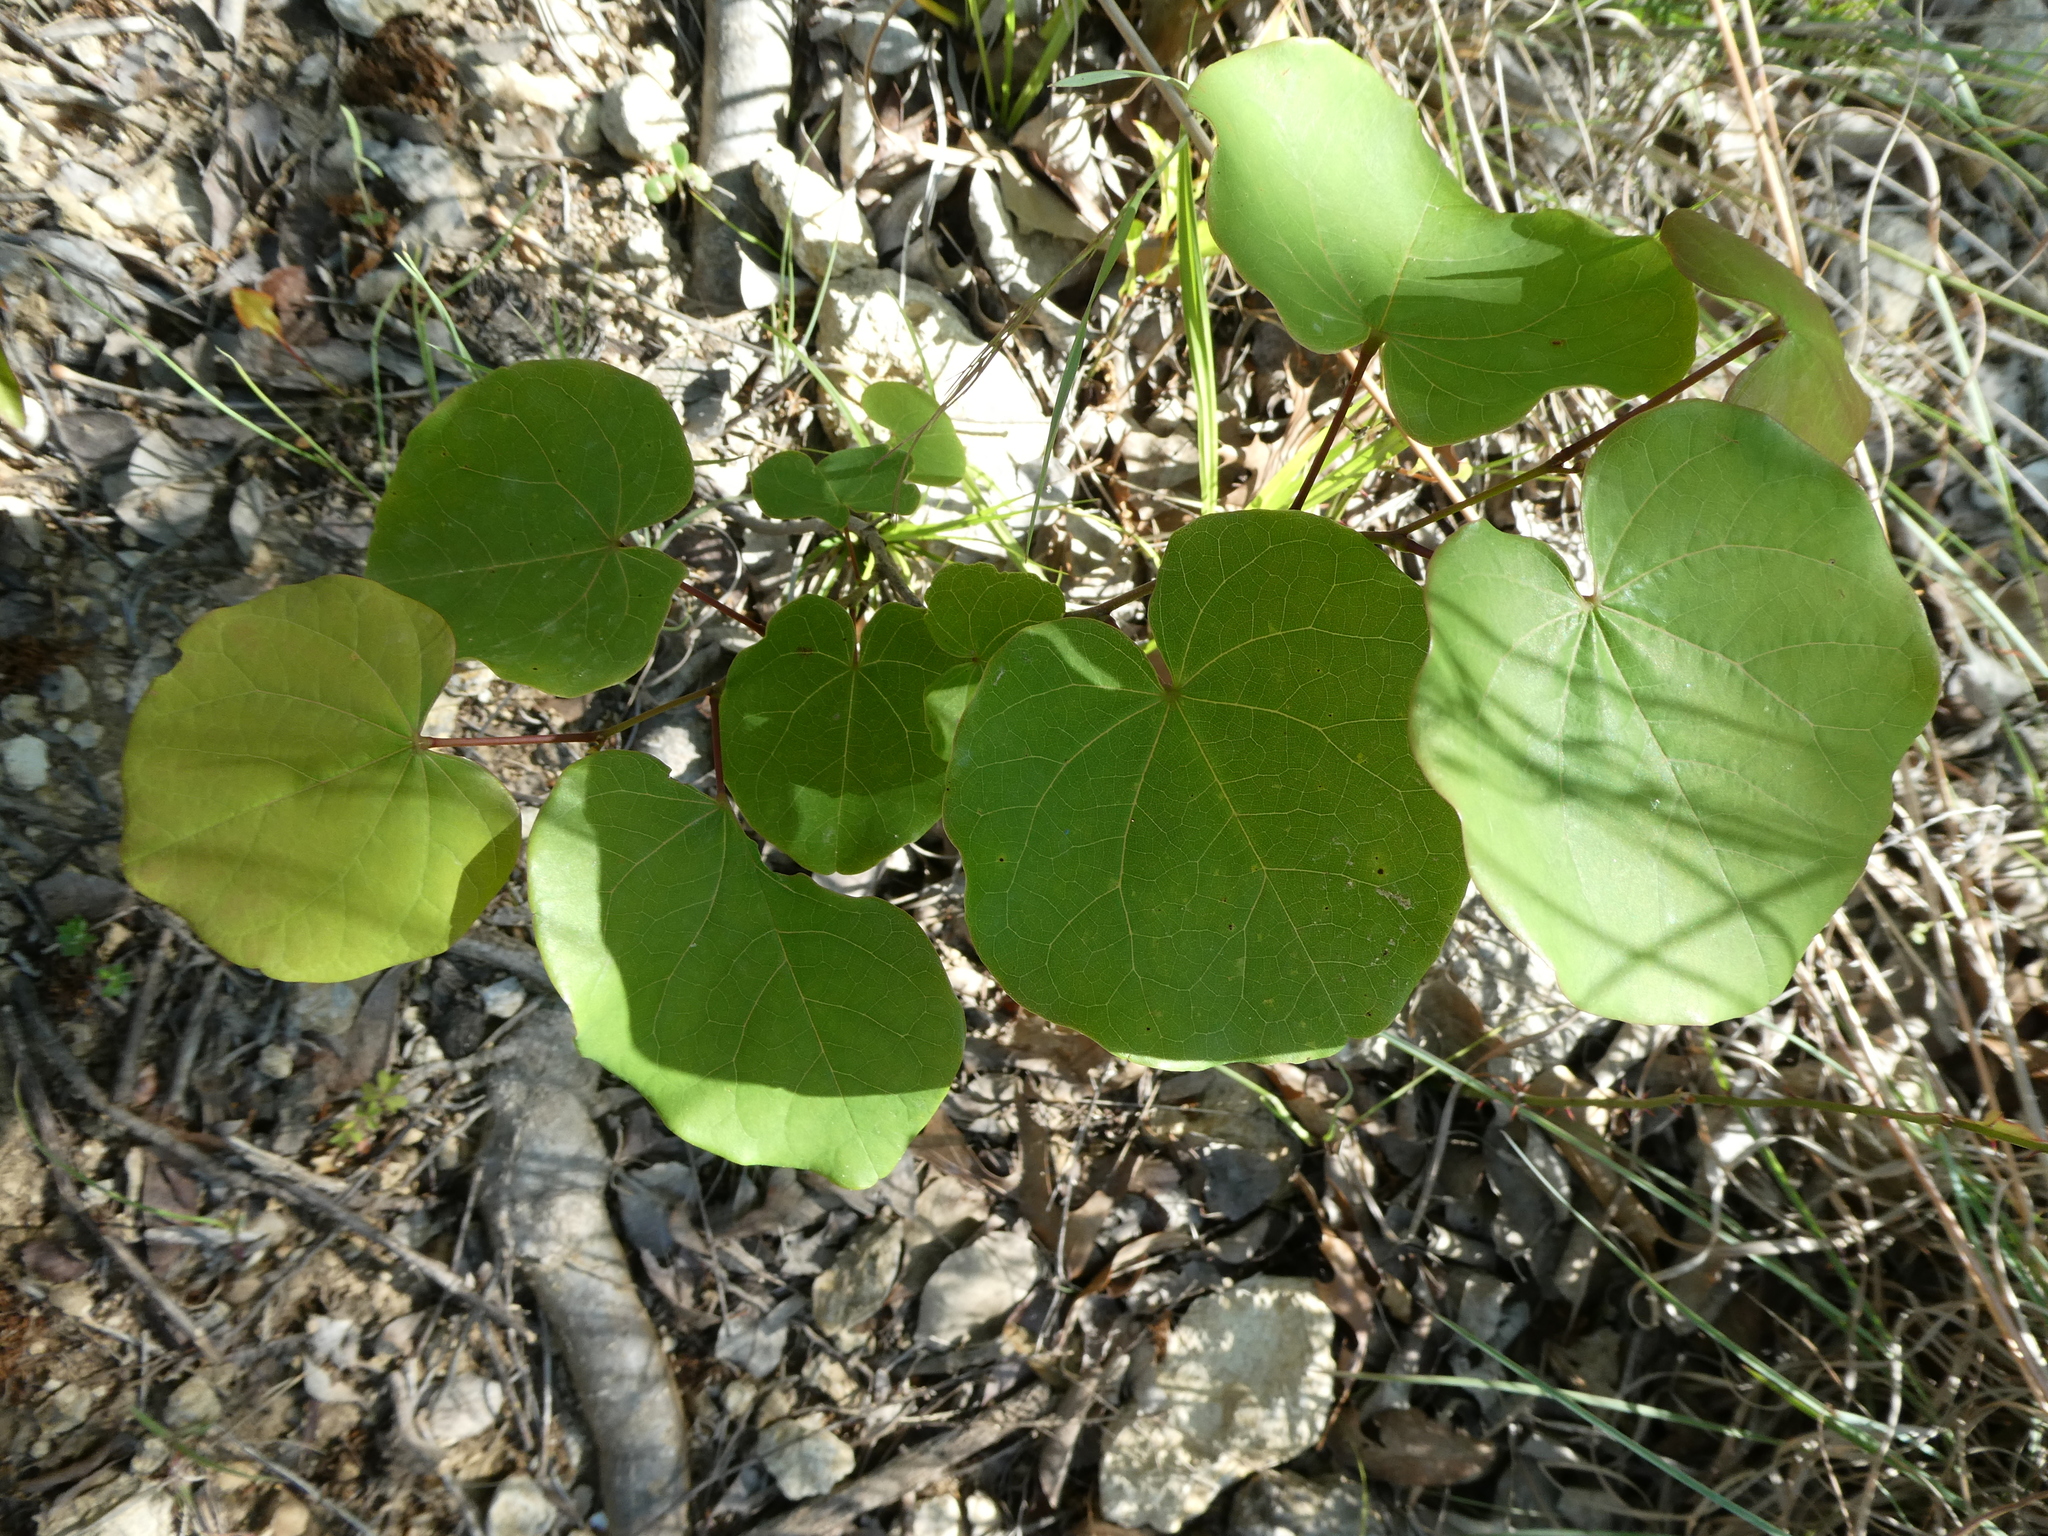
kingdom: Plantae
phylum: Tracheophyta
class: Magnoliopsida
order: Fabales
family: Fabaceae
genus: Cercis
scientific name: Cercis canadensis
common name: Eastern redbud
